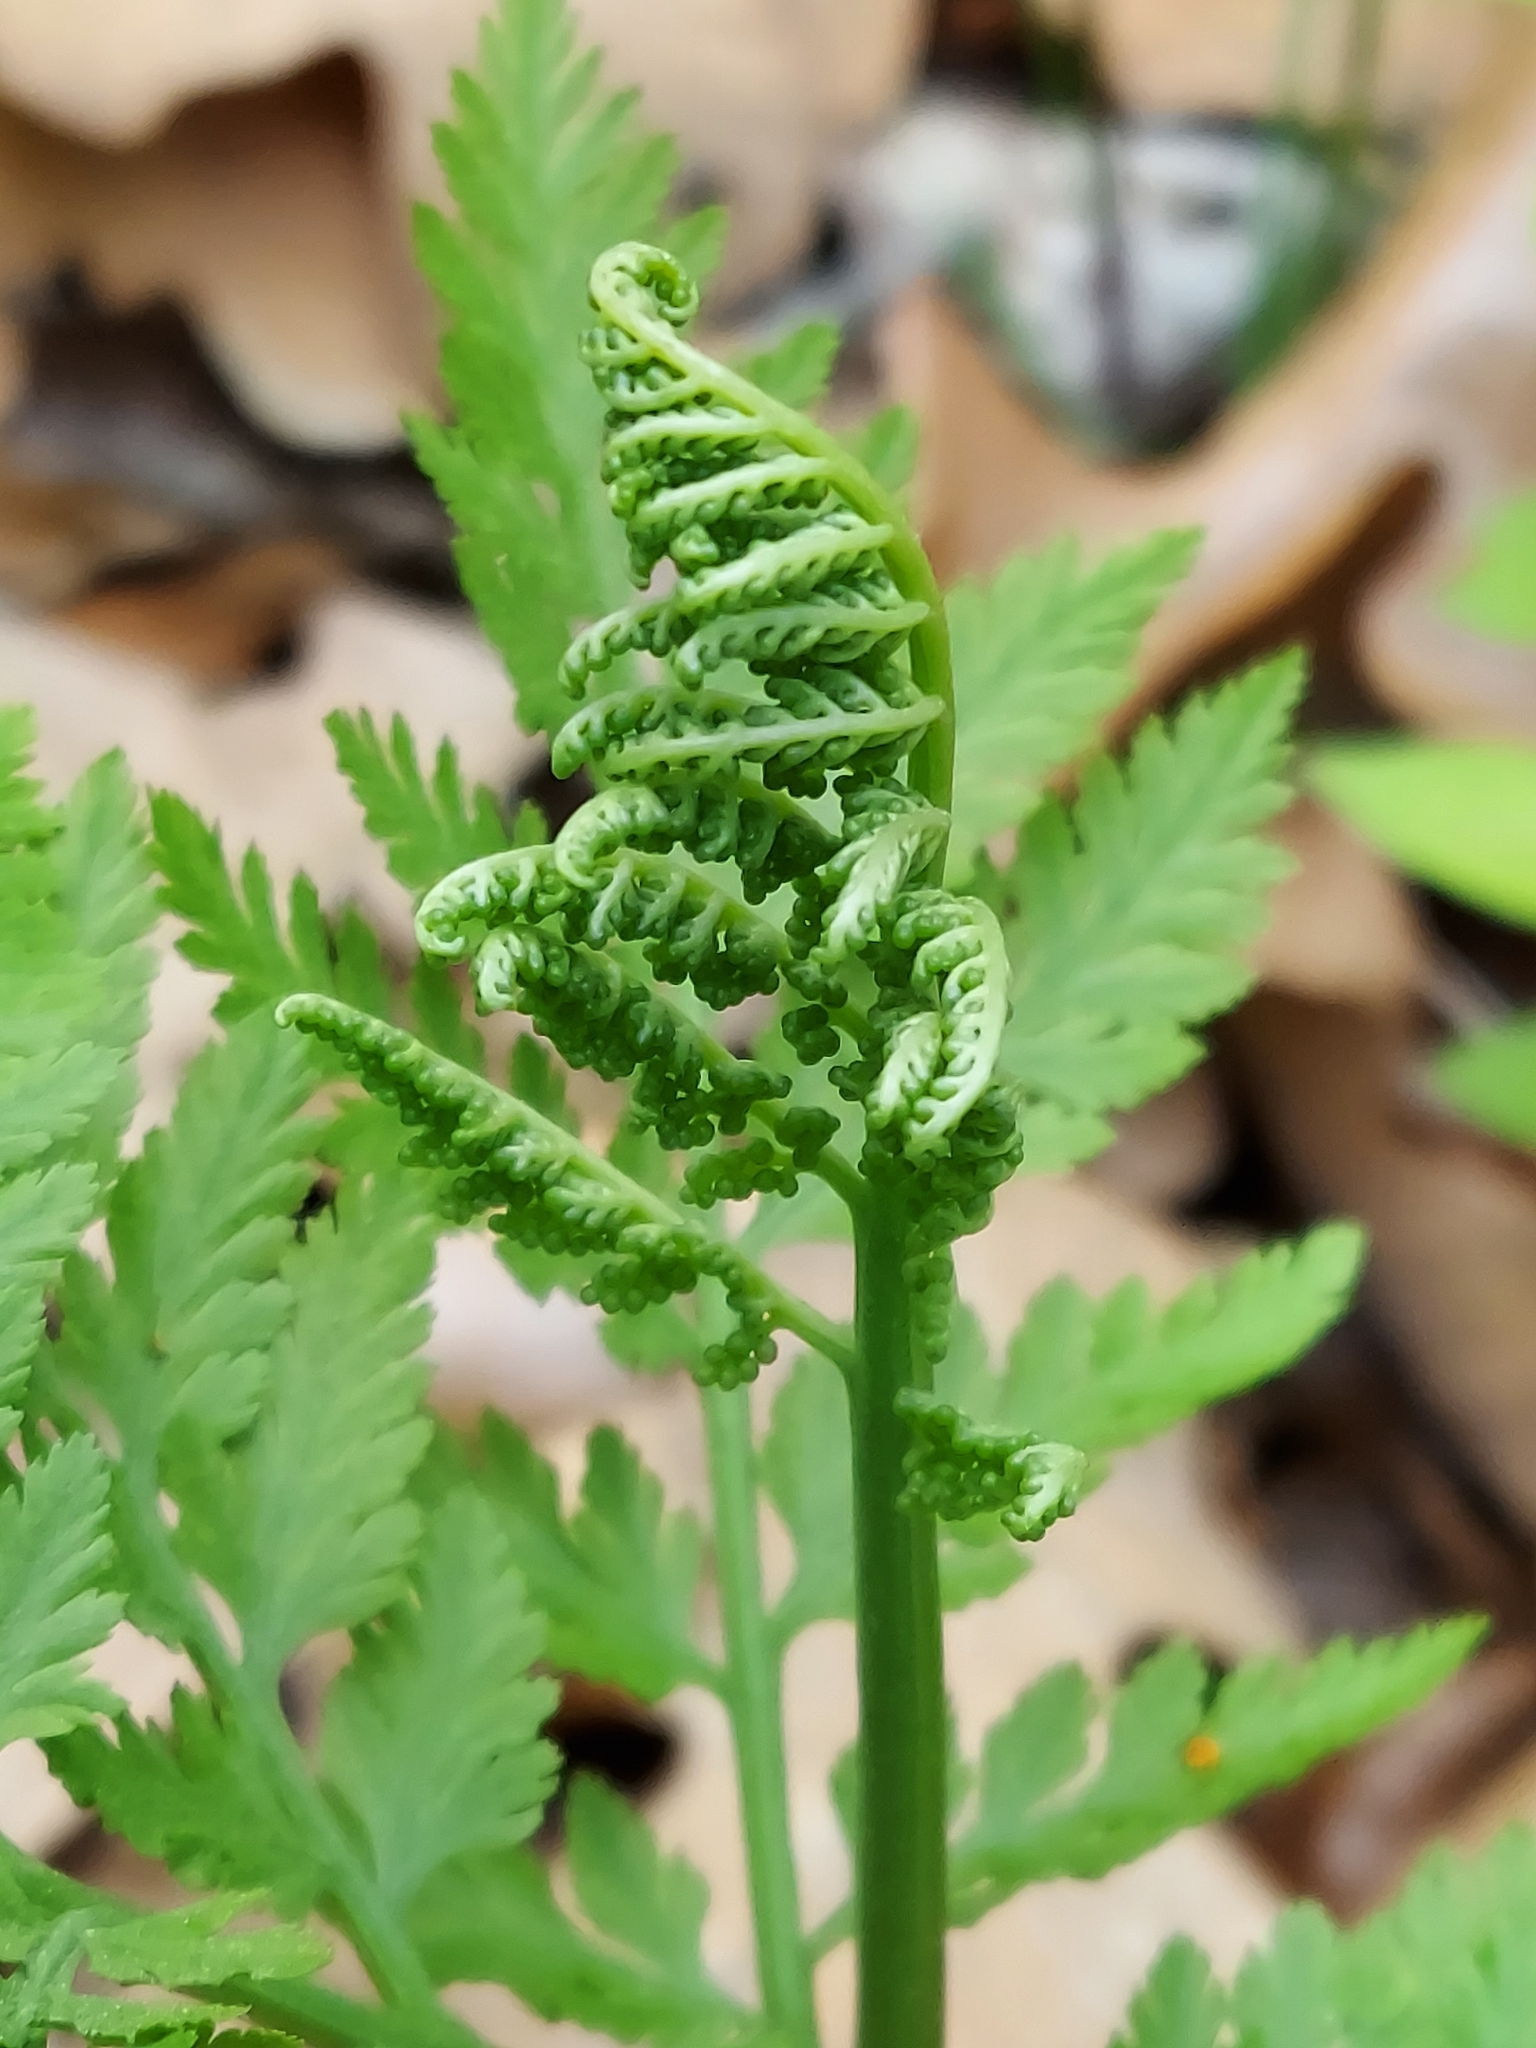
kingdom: Plantae
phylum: Tracheophyta
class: Polypodiopsida
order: Ophioglossales
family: Ophioglossaceae
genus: Botrypus
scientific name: Botrypus virginianus
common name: Common grapefern
